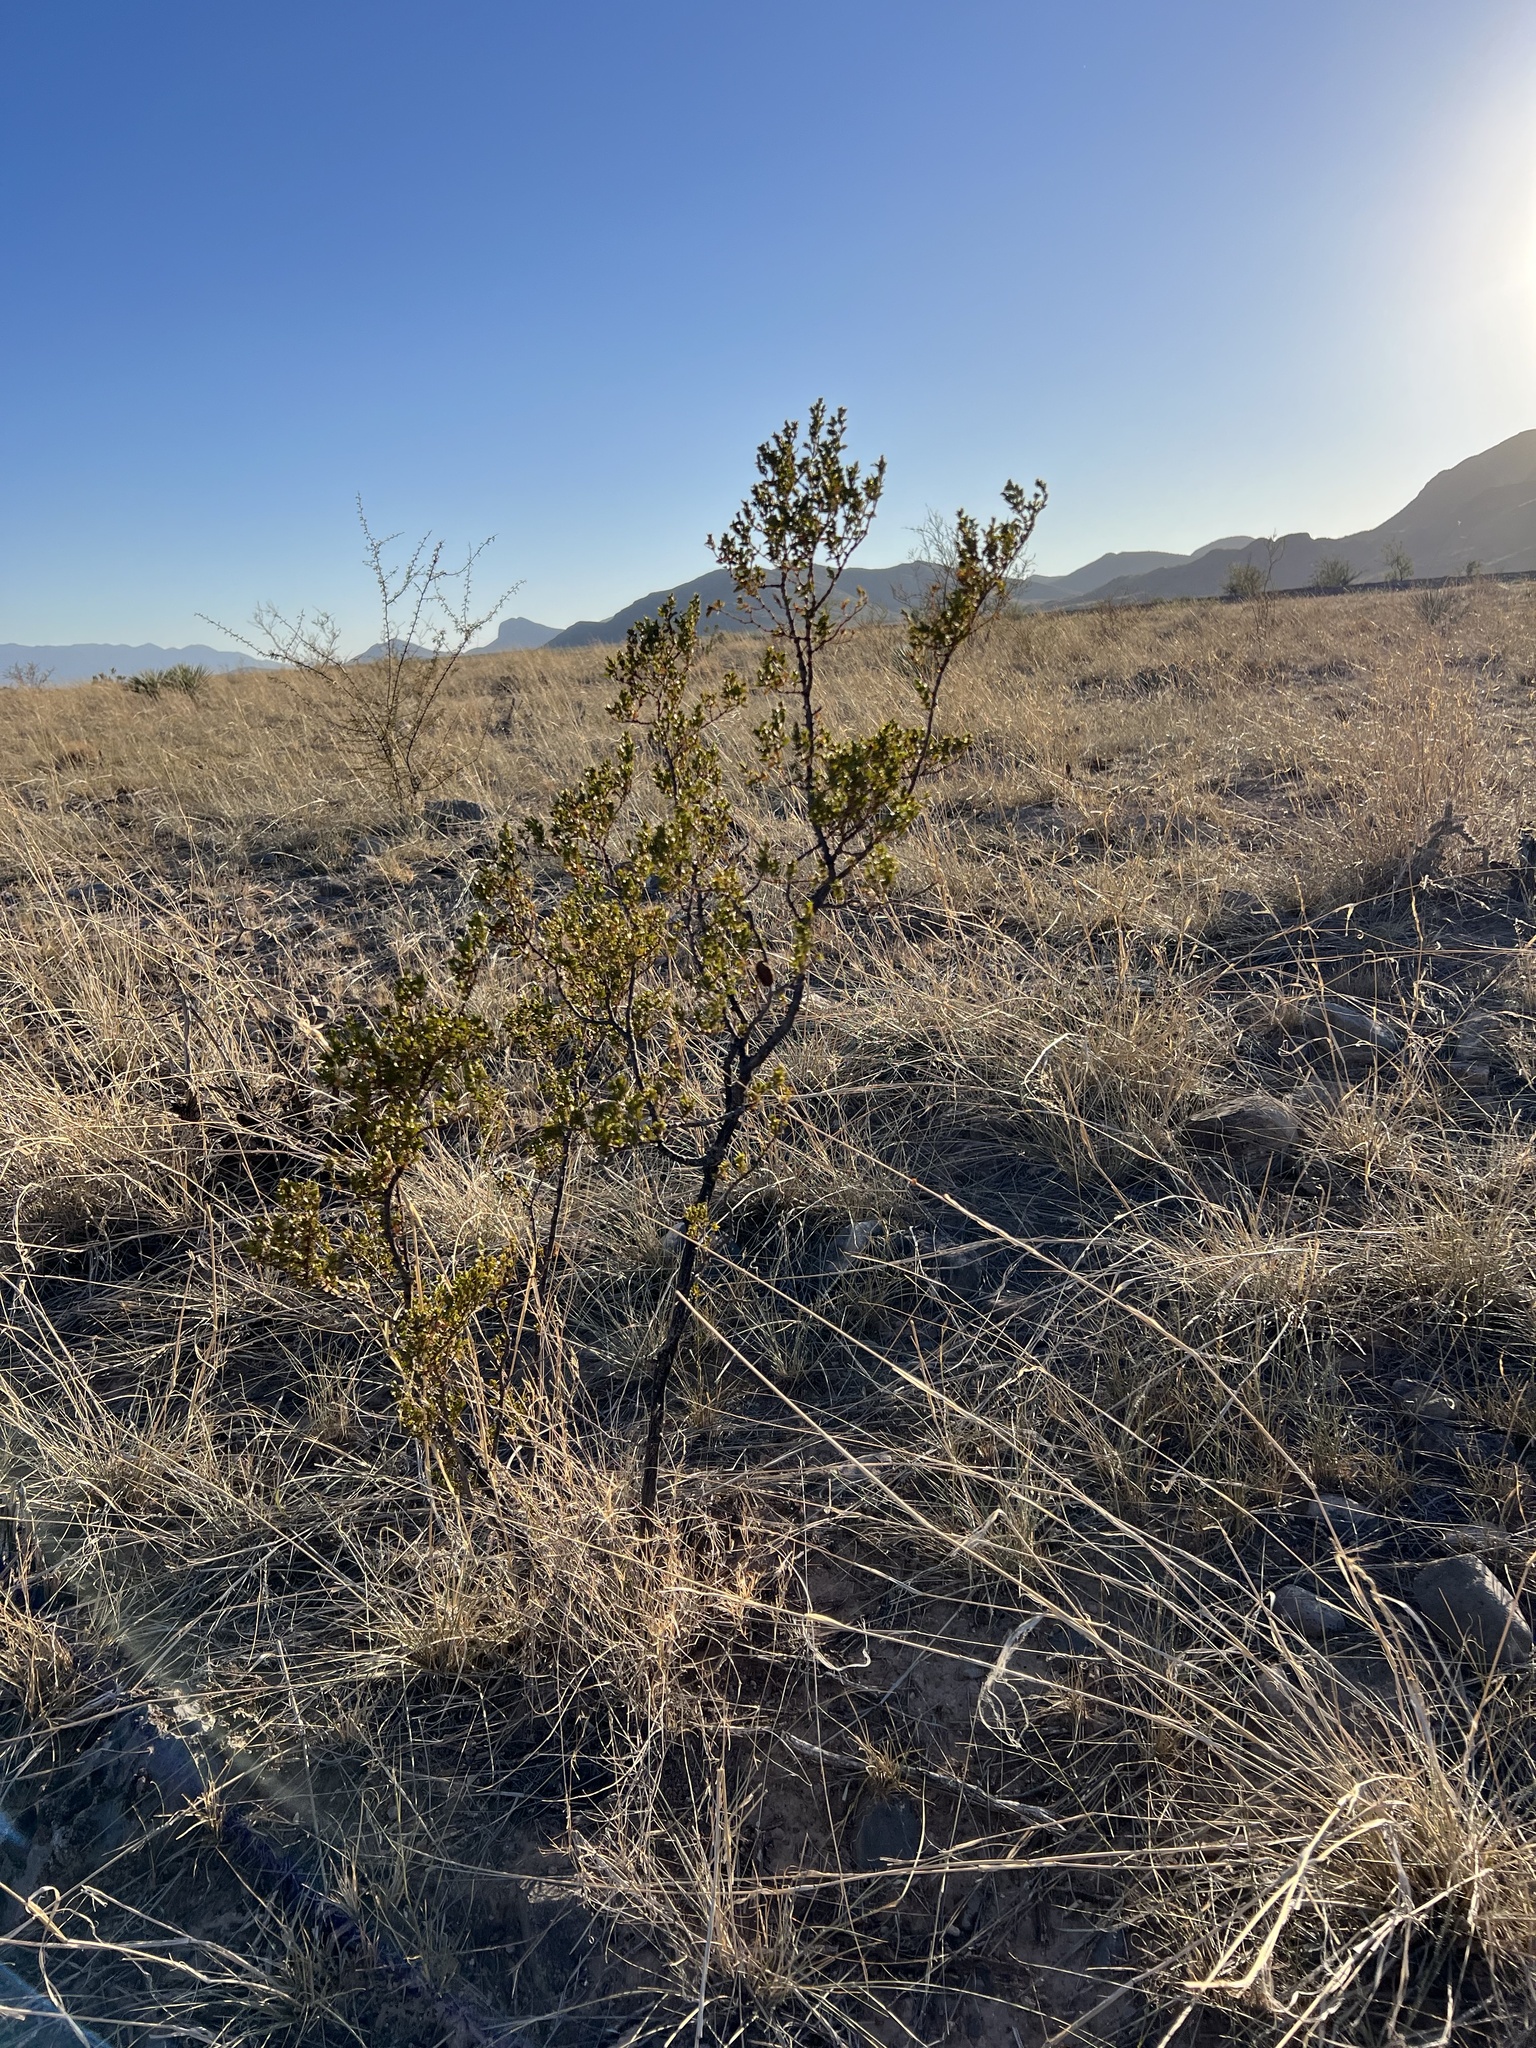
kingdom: Plantae
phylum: Tracheophyta
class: Magnoliopsida
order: Zygophyllales
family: Zygophyllaceae
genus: Larrea
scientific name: Larrea tridentata
